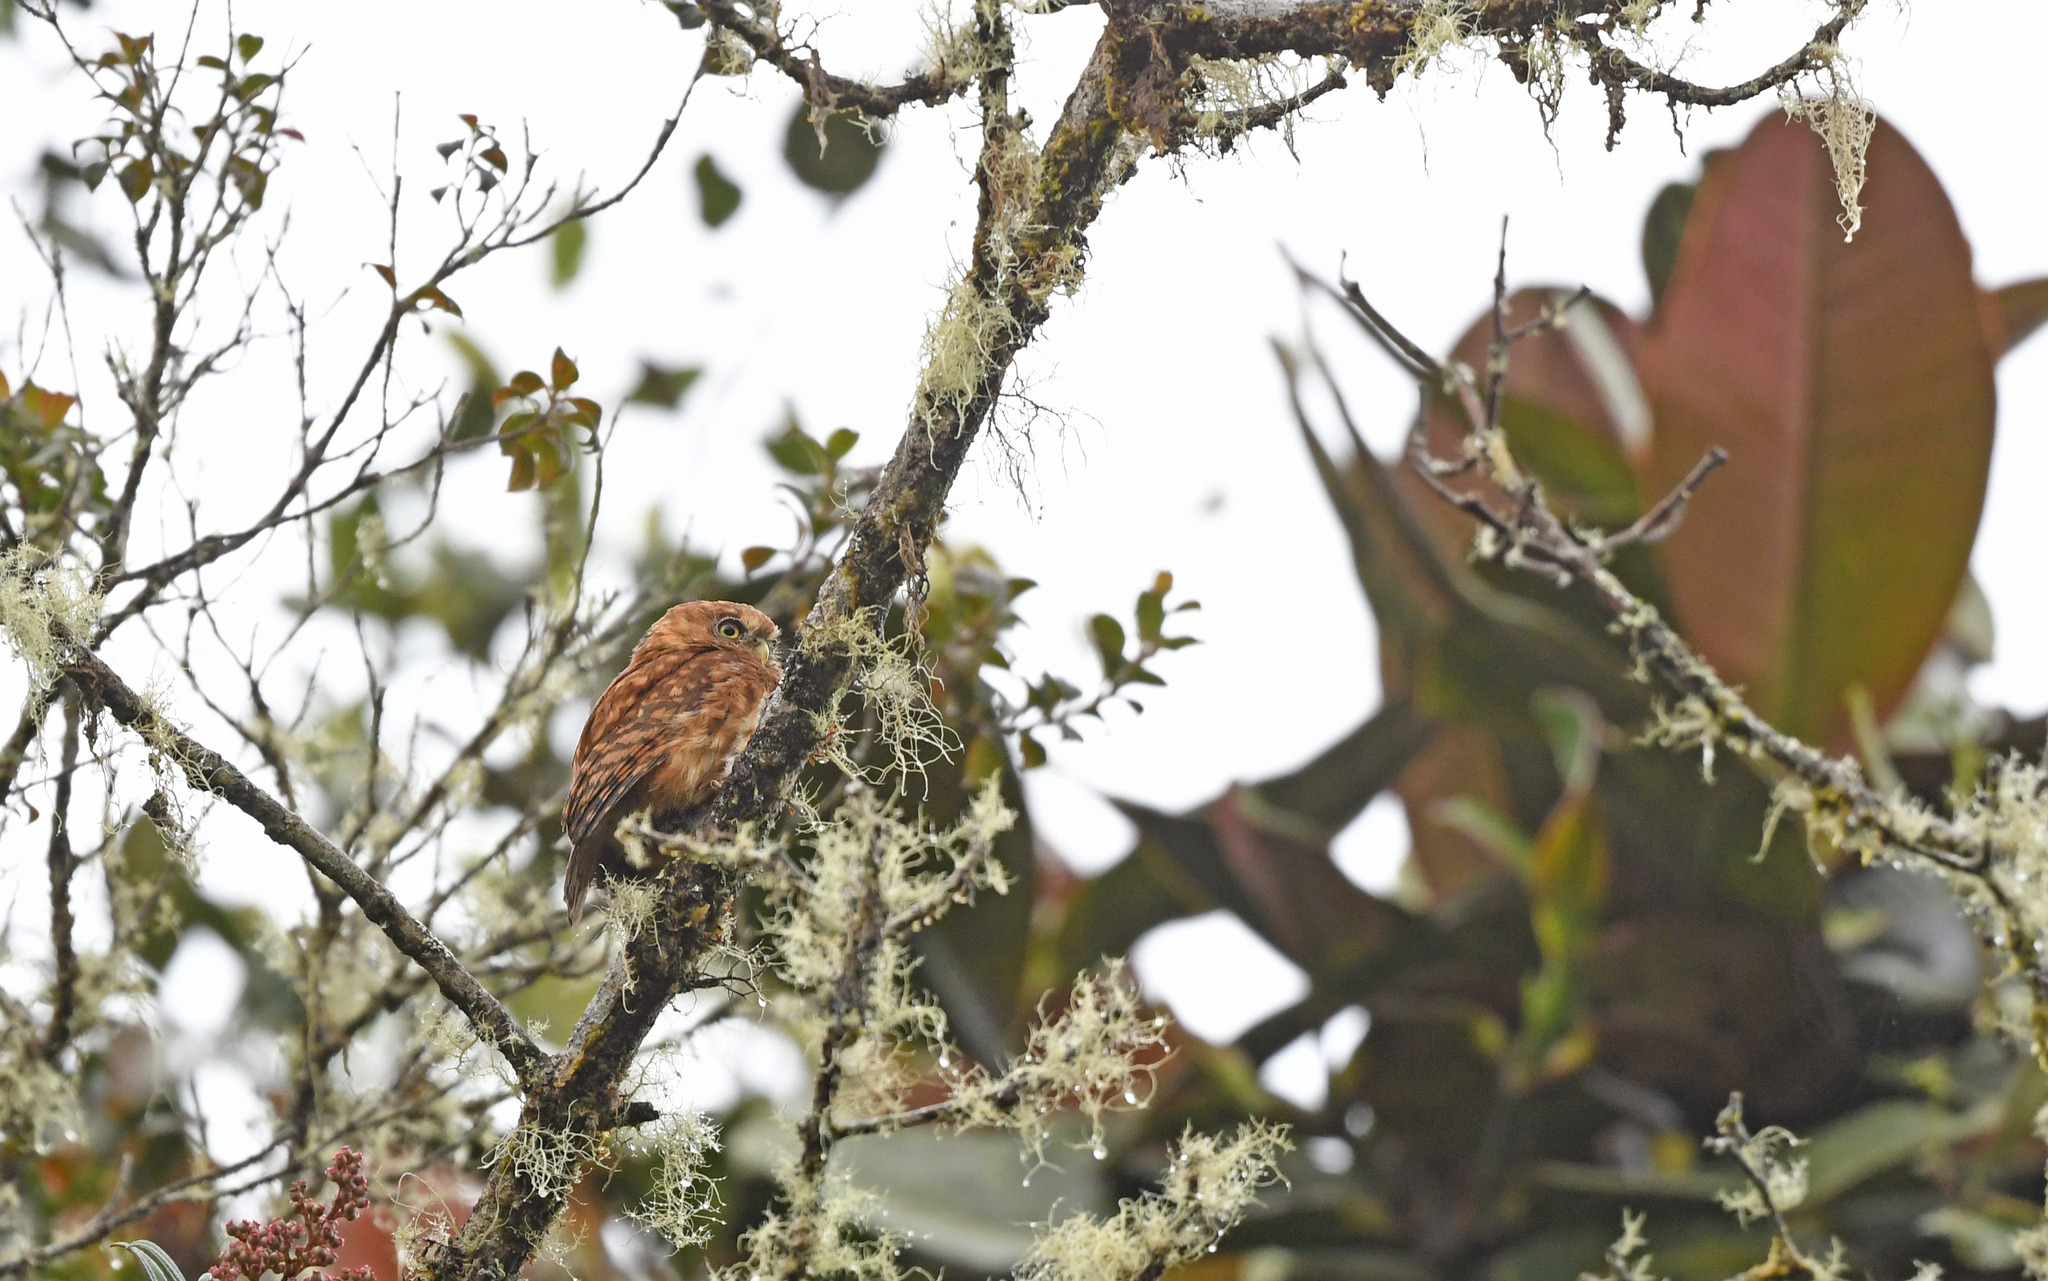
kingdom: Animalia
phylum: Chordata
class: Aves
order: Strigiformes
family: Strigidae
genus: Glaucidium
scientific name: Glaucidium jardinii
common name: Andean pygmy owl
